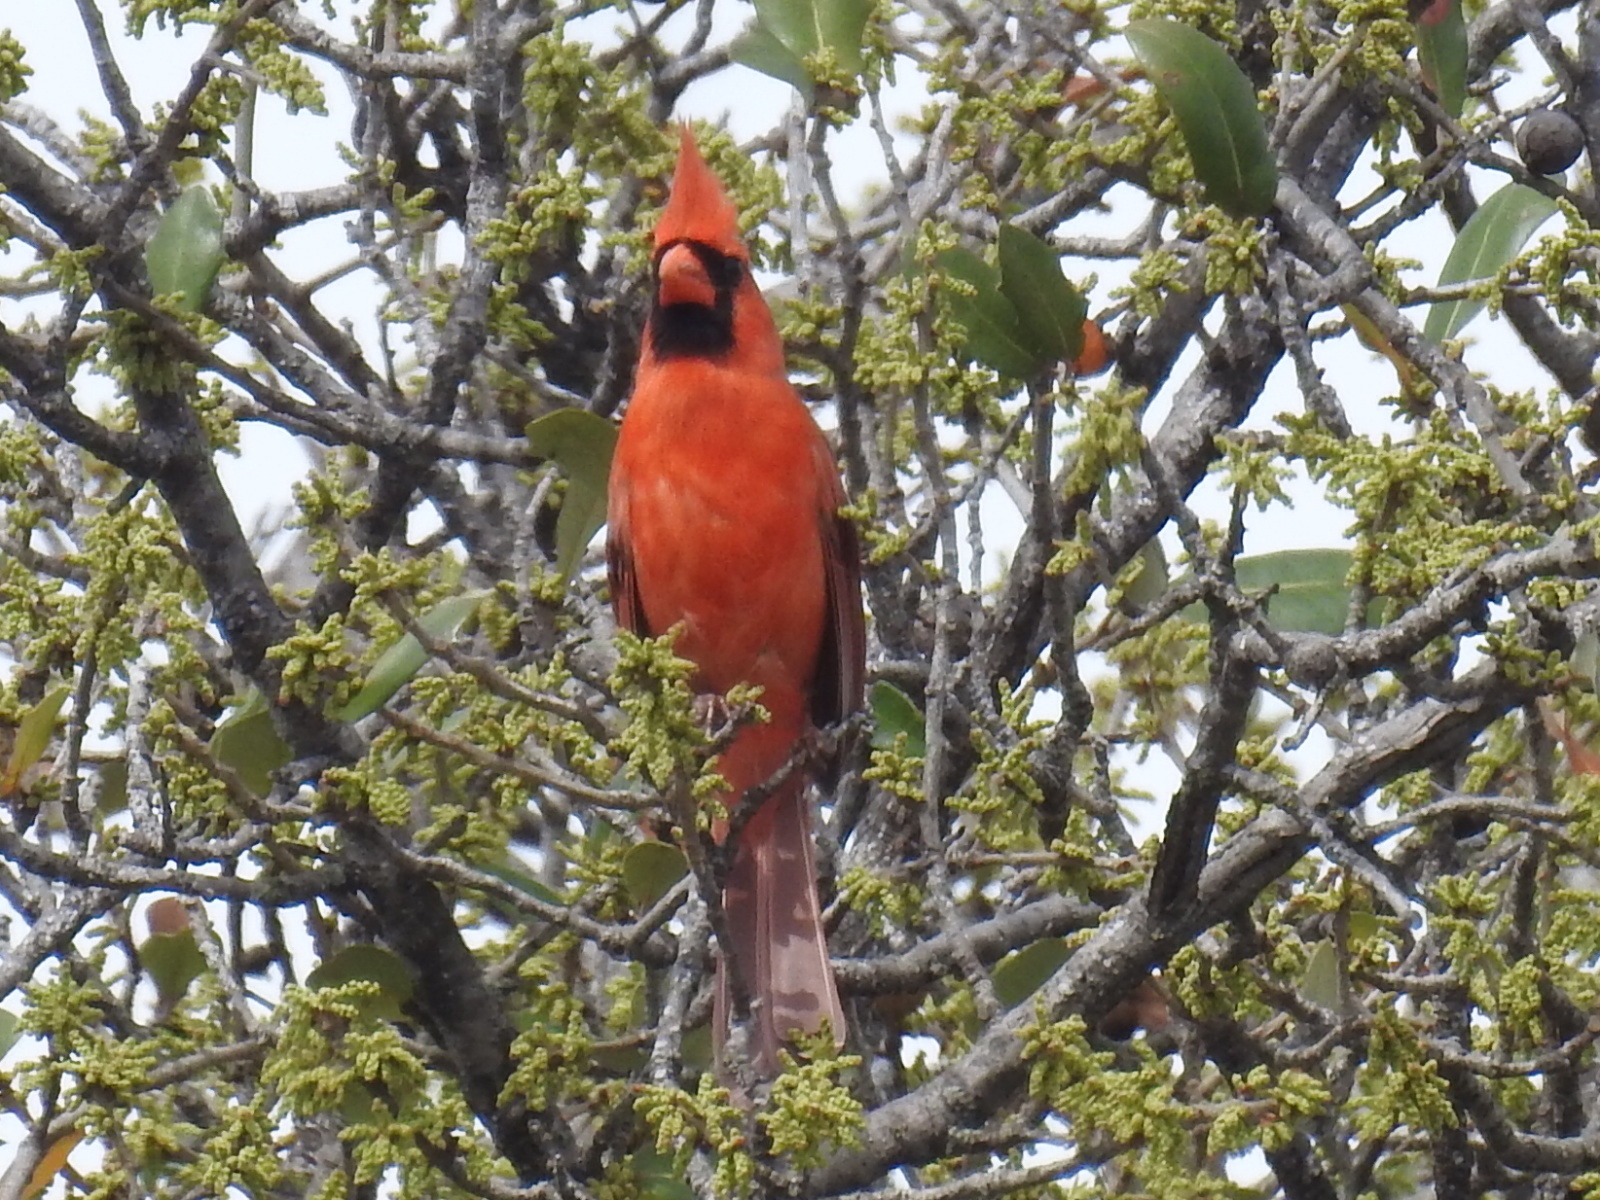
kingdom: Animalia
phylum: Chordata
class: Aves
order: Passeriformes
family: Cardinalidae
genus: Cardinalis
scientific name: Cardinalis cardinalis
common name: Northern cardinal
